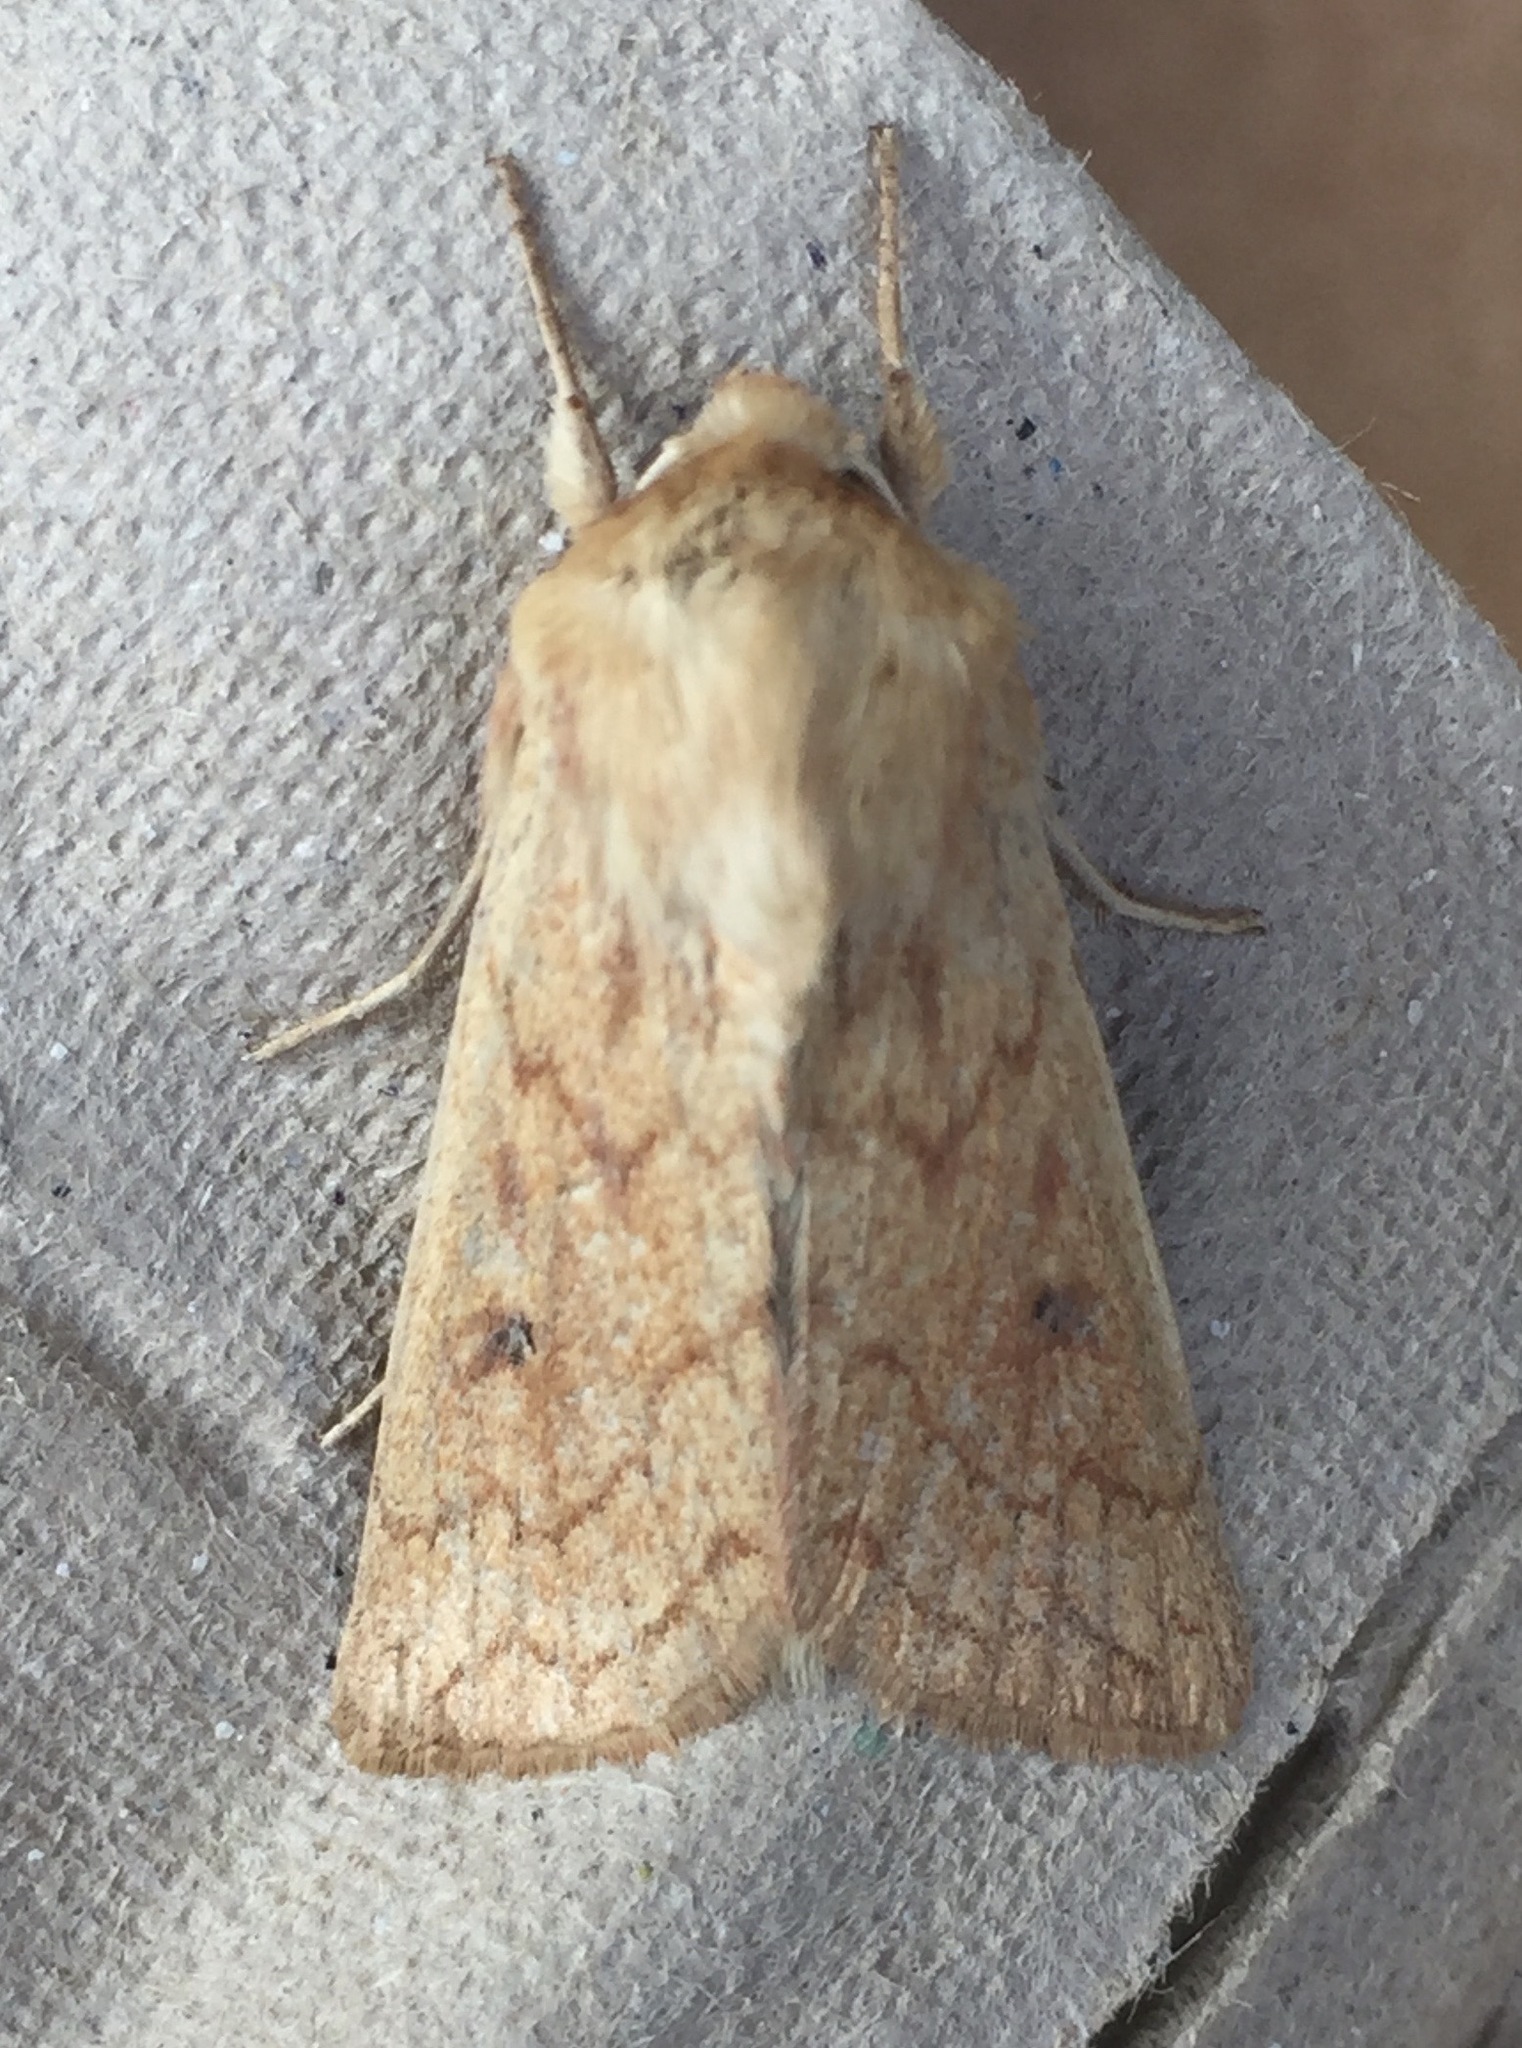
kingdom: Animalia
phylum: Arthropoda
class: Insecta
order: Lepidoptera
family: Noctuidae
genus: Mythimna
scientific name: Mythimna vitellina
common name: Delicate
